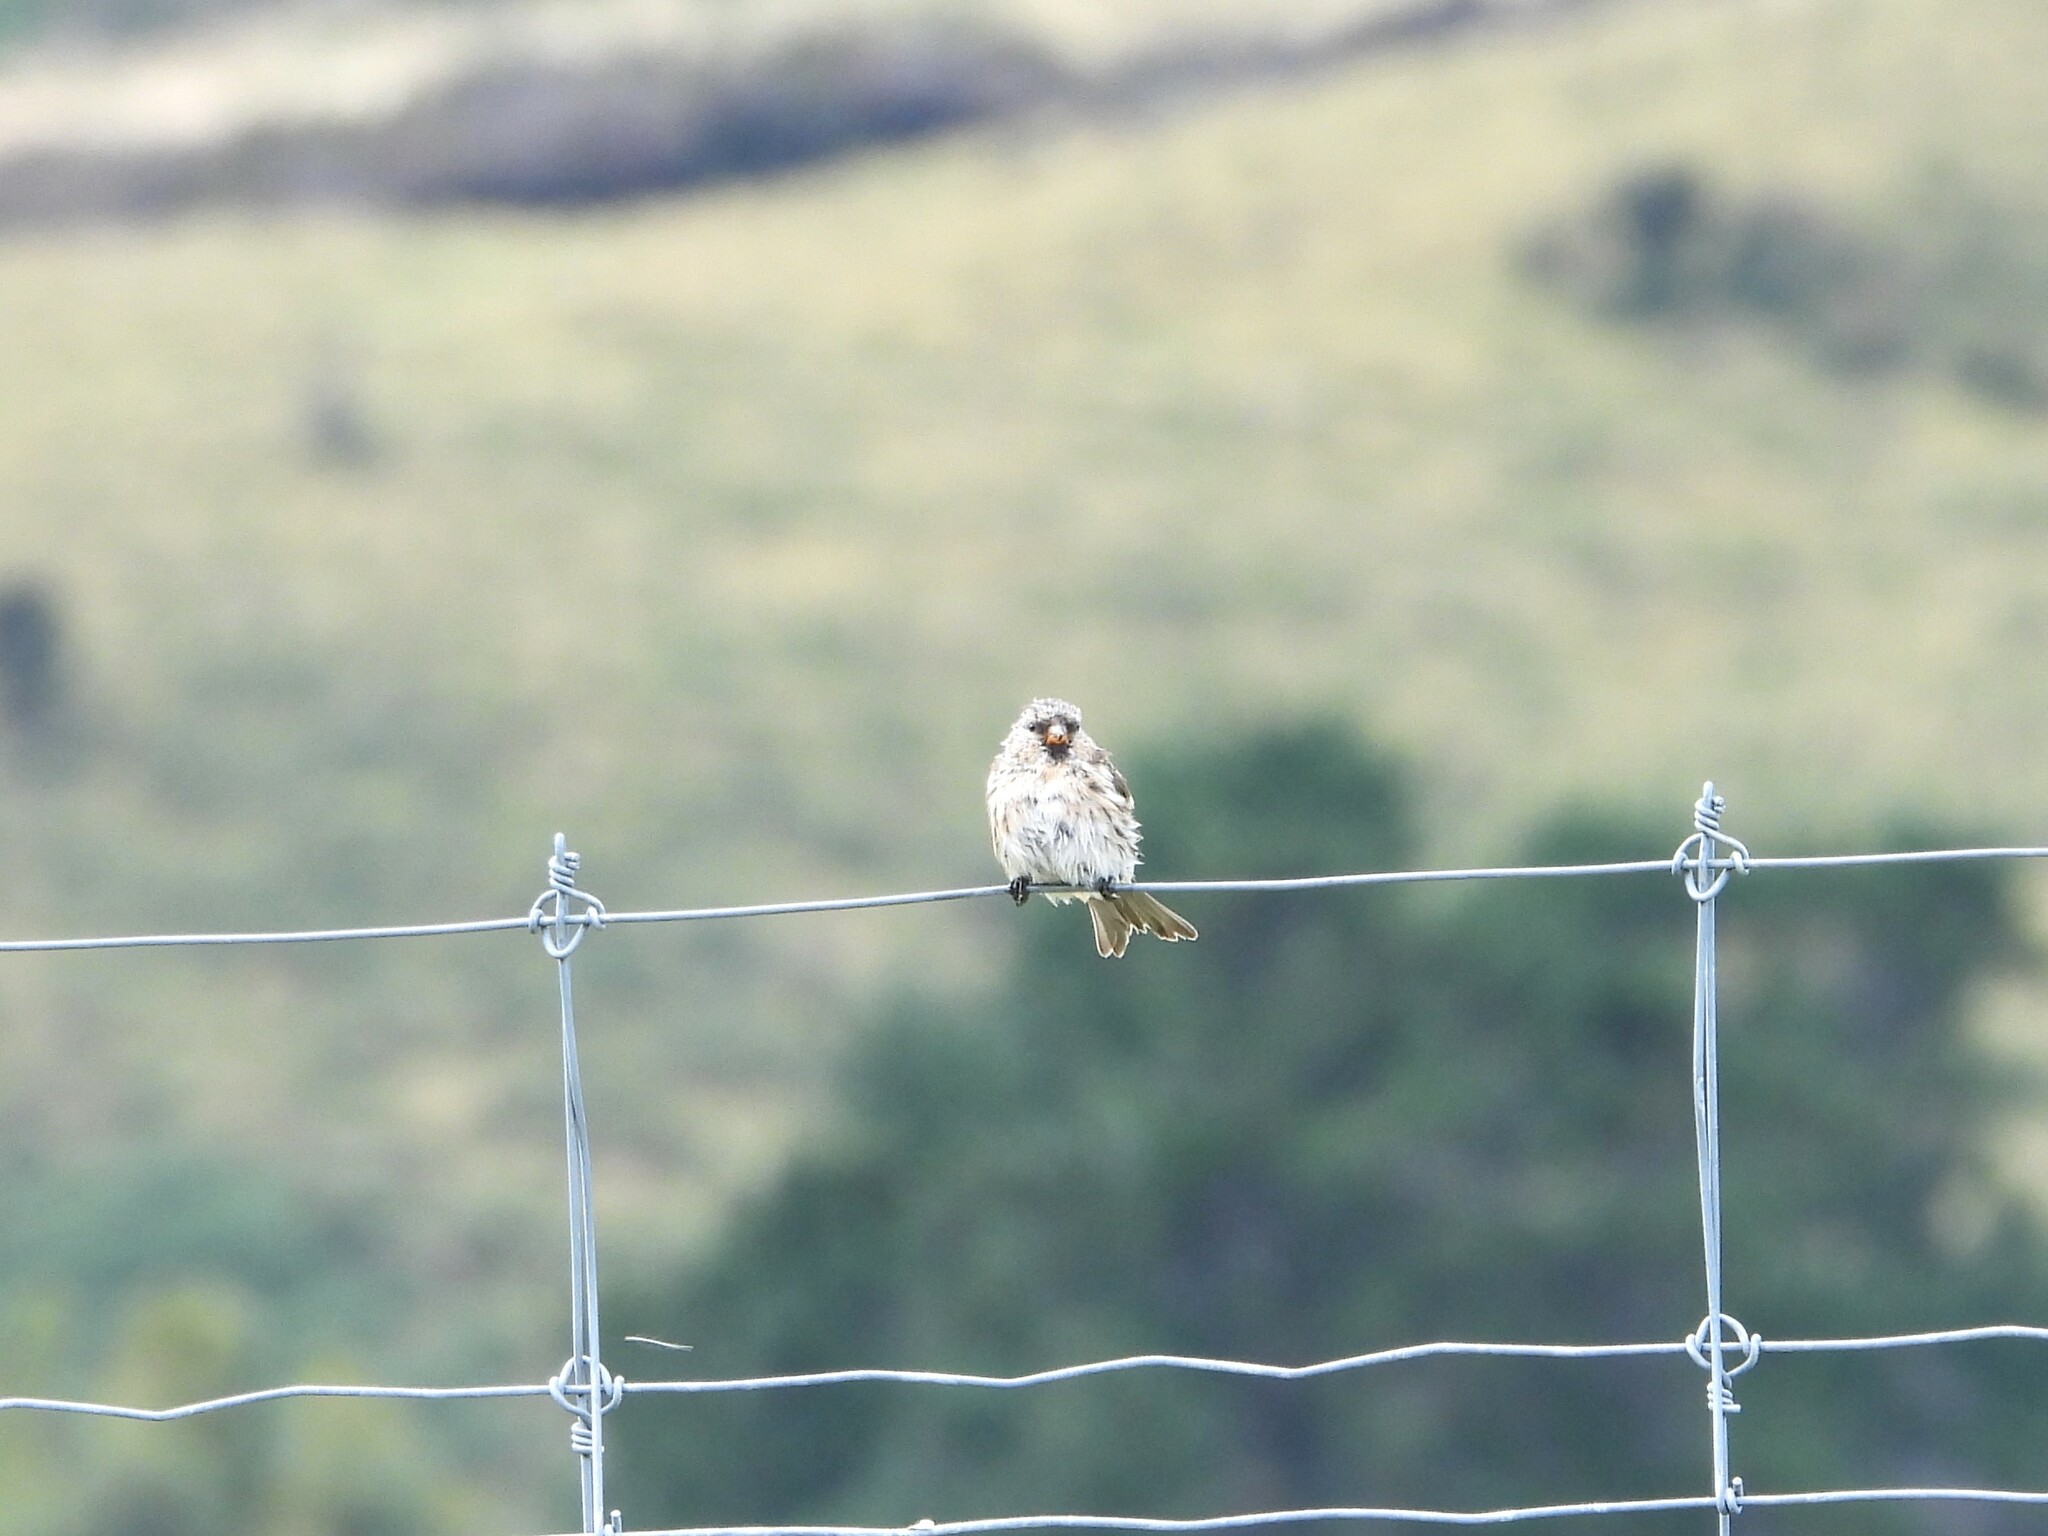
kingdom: Animalia
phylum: Chordata
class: Aves
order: Passeriformes
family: Fringillidae
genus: Acanthis
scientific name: Acanthis flammea
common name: Common redpoll
